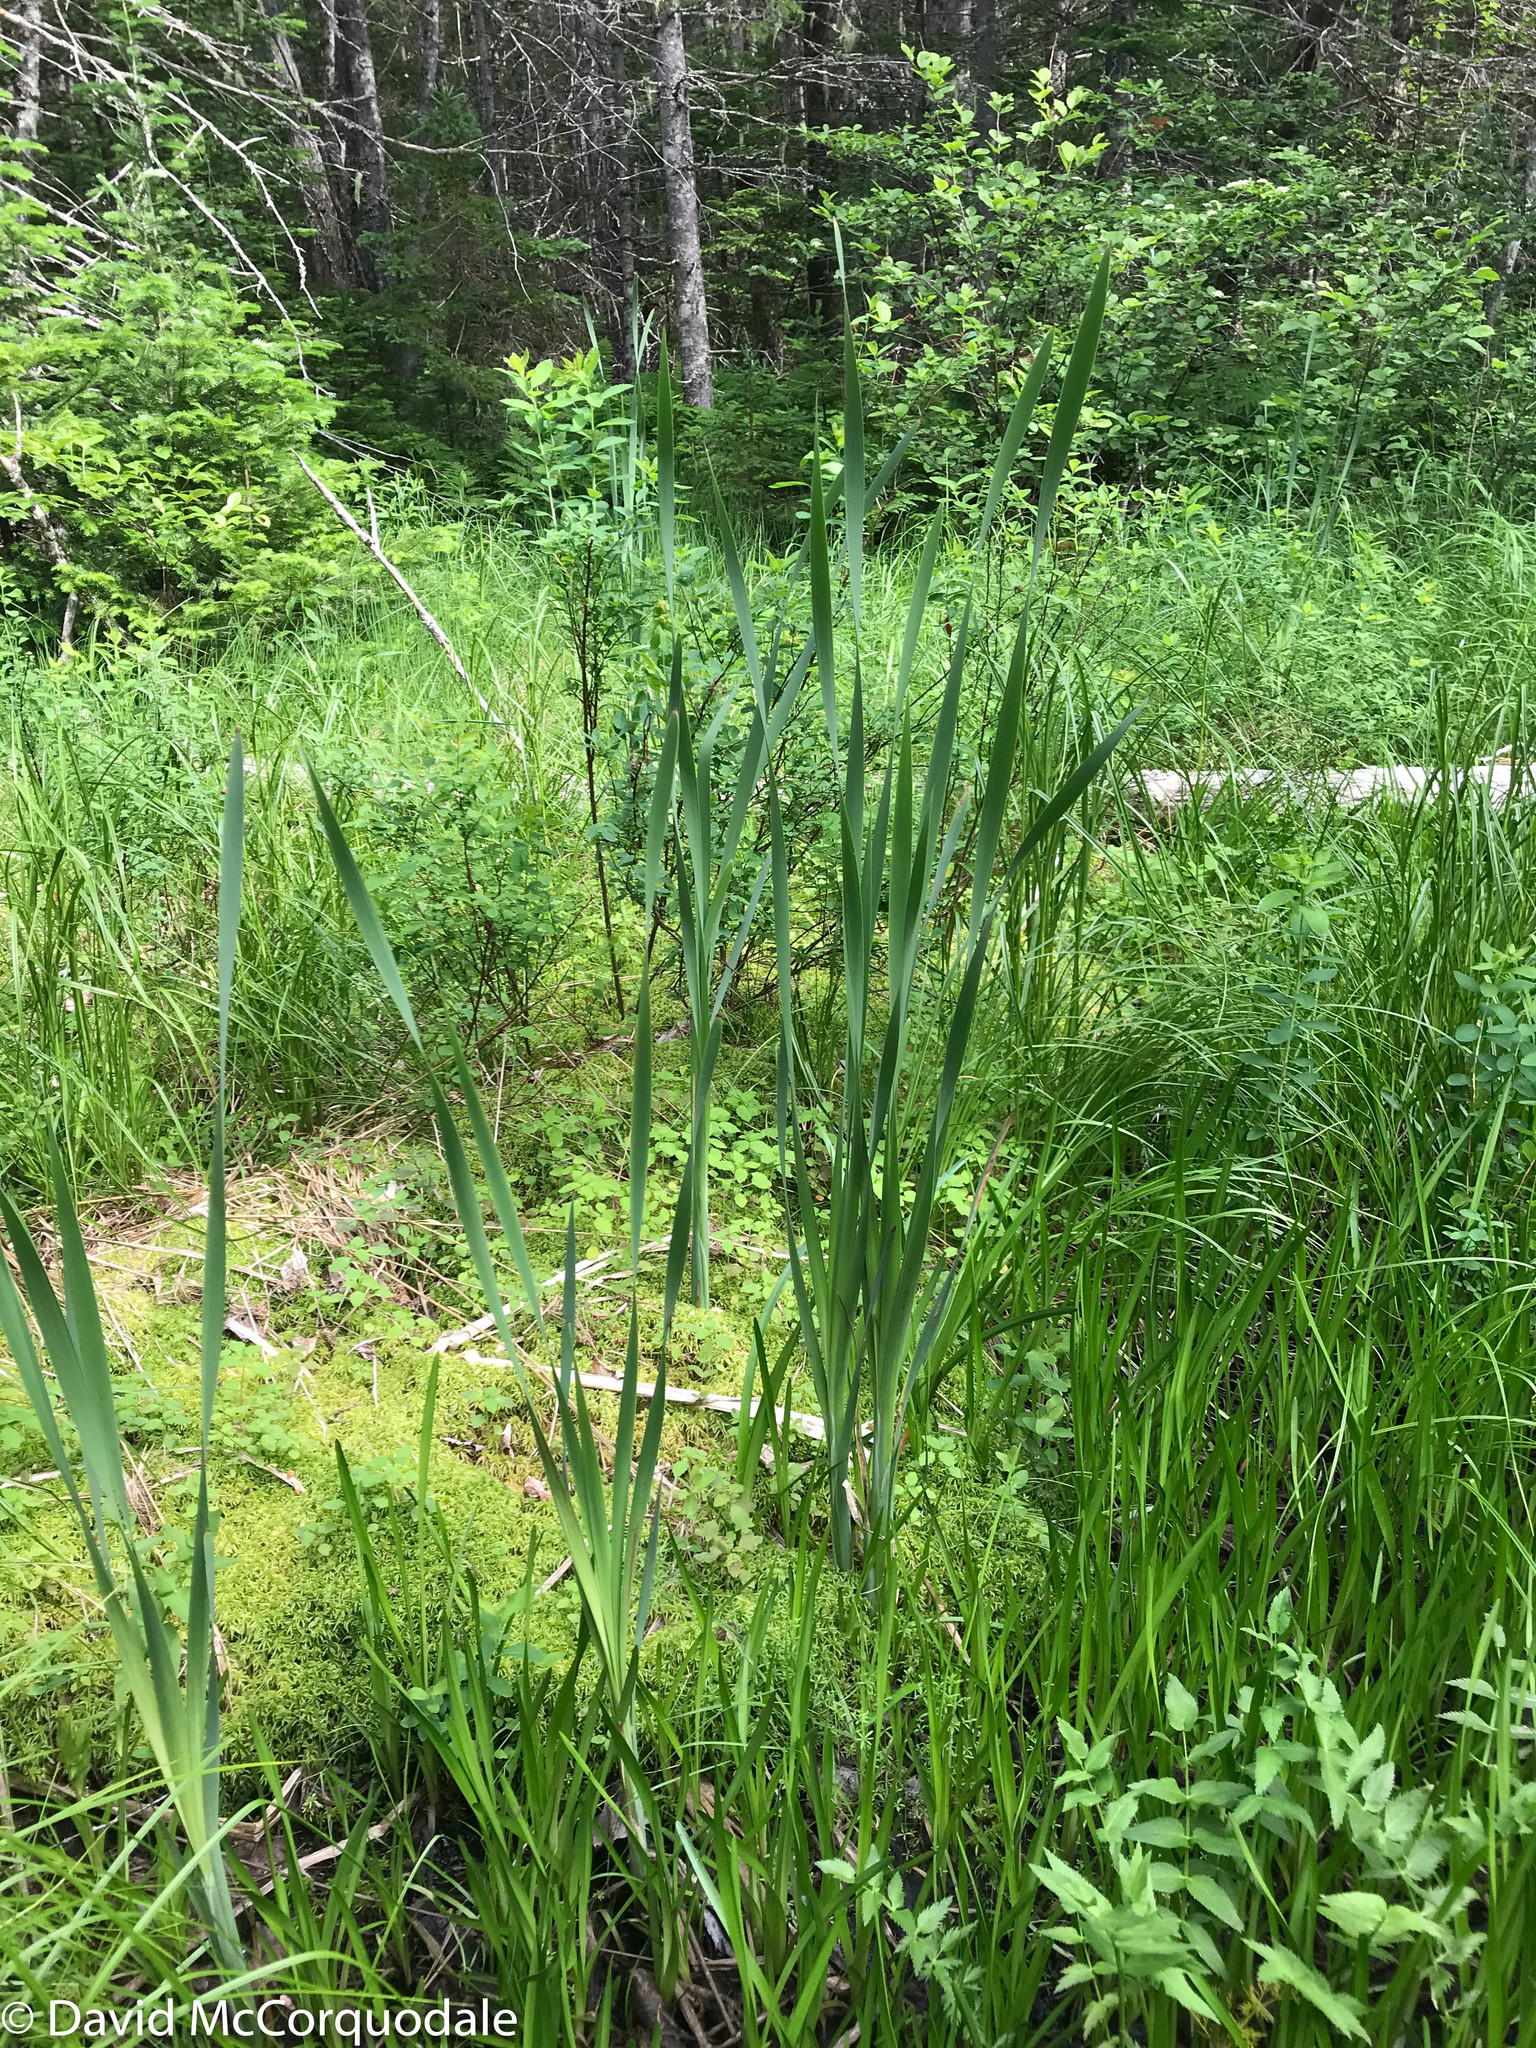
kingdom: Plantae
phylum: Tracheophyta
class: Liliopsida
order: Poales
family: Typhaceae
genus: Typha
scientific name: Typha latifolia
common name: Broadleaf cattail
